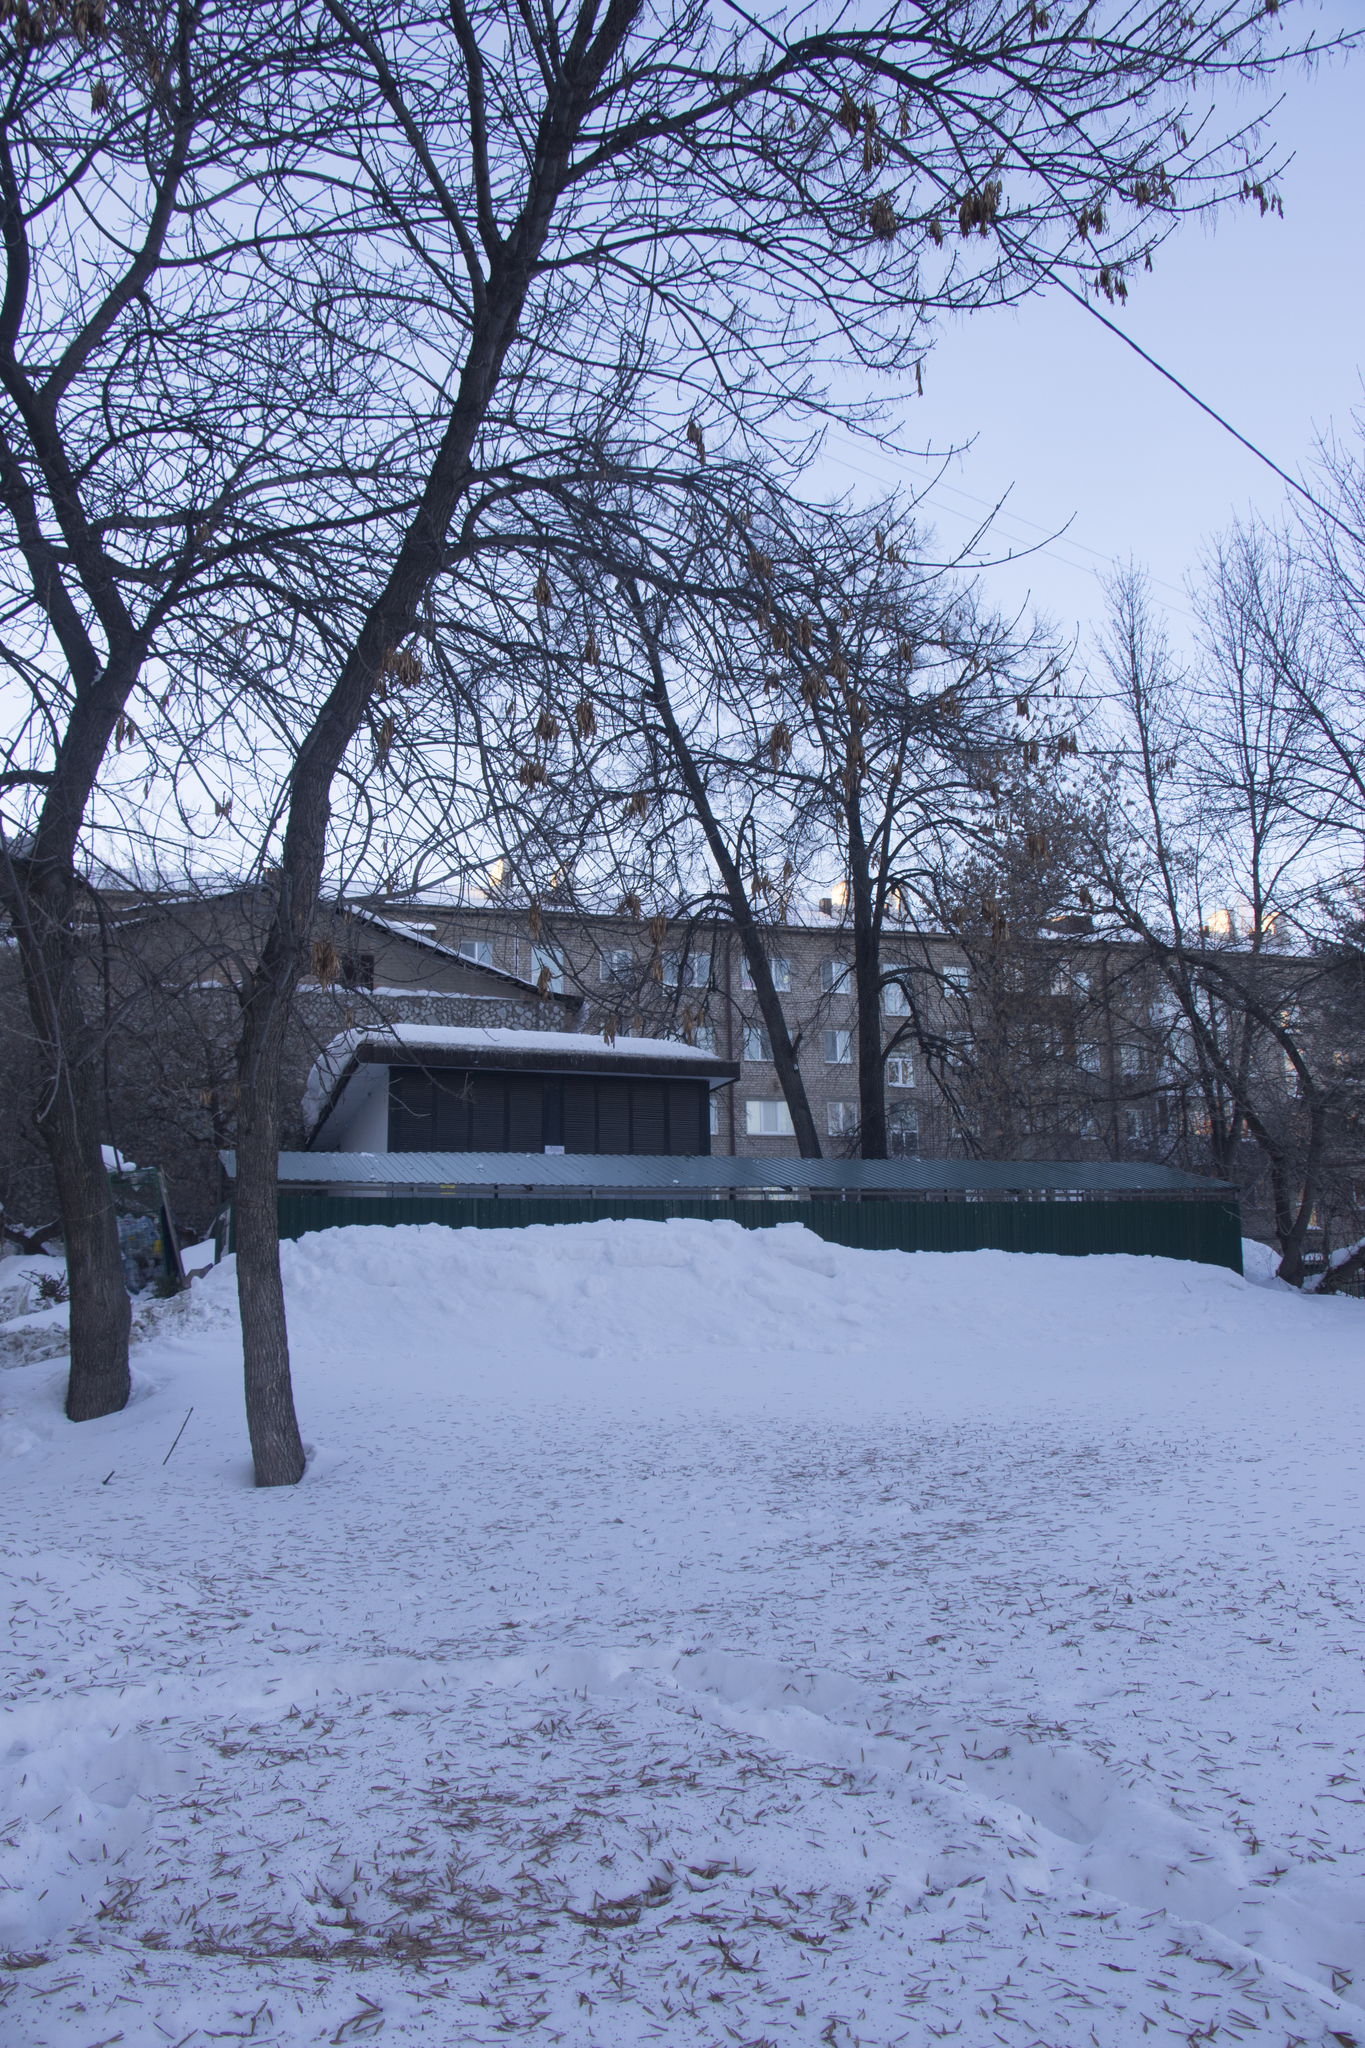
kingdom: Animalia
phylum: Chordata
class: Aves
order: Passeriformes
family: Fringillidae
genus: Pyrrhula
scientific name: Pyrrhula pyrrhula
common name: Eurasian bullfinch
